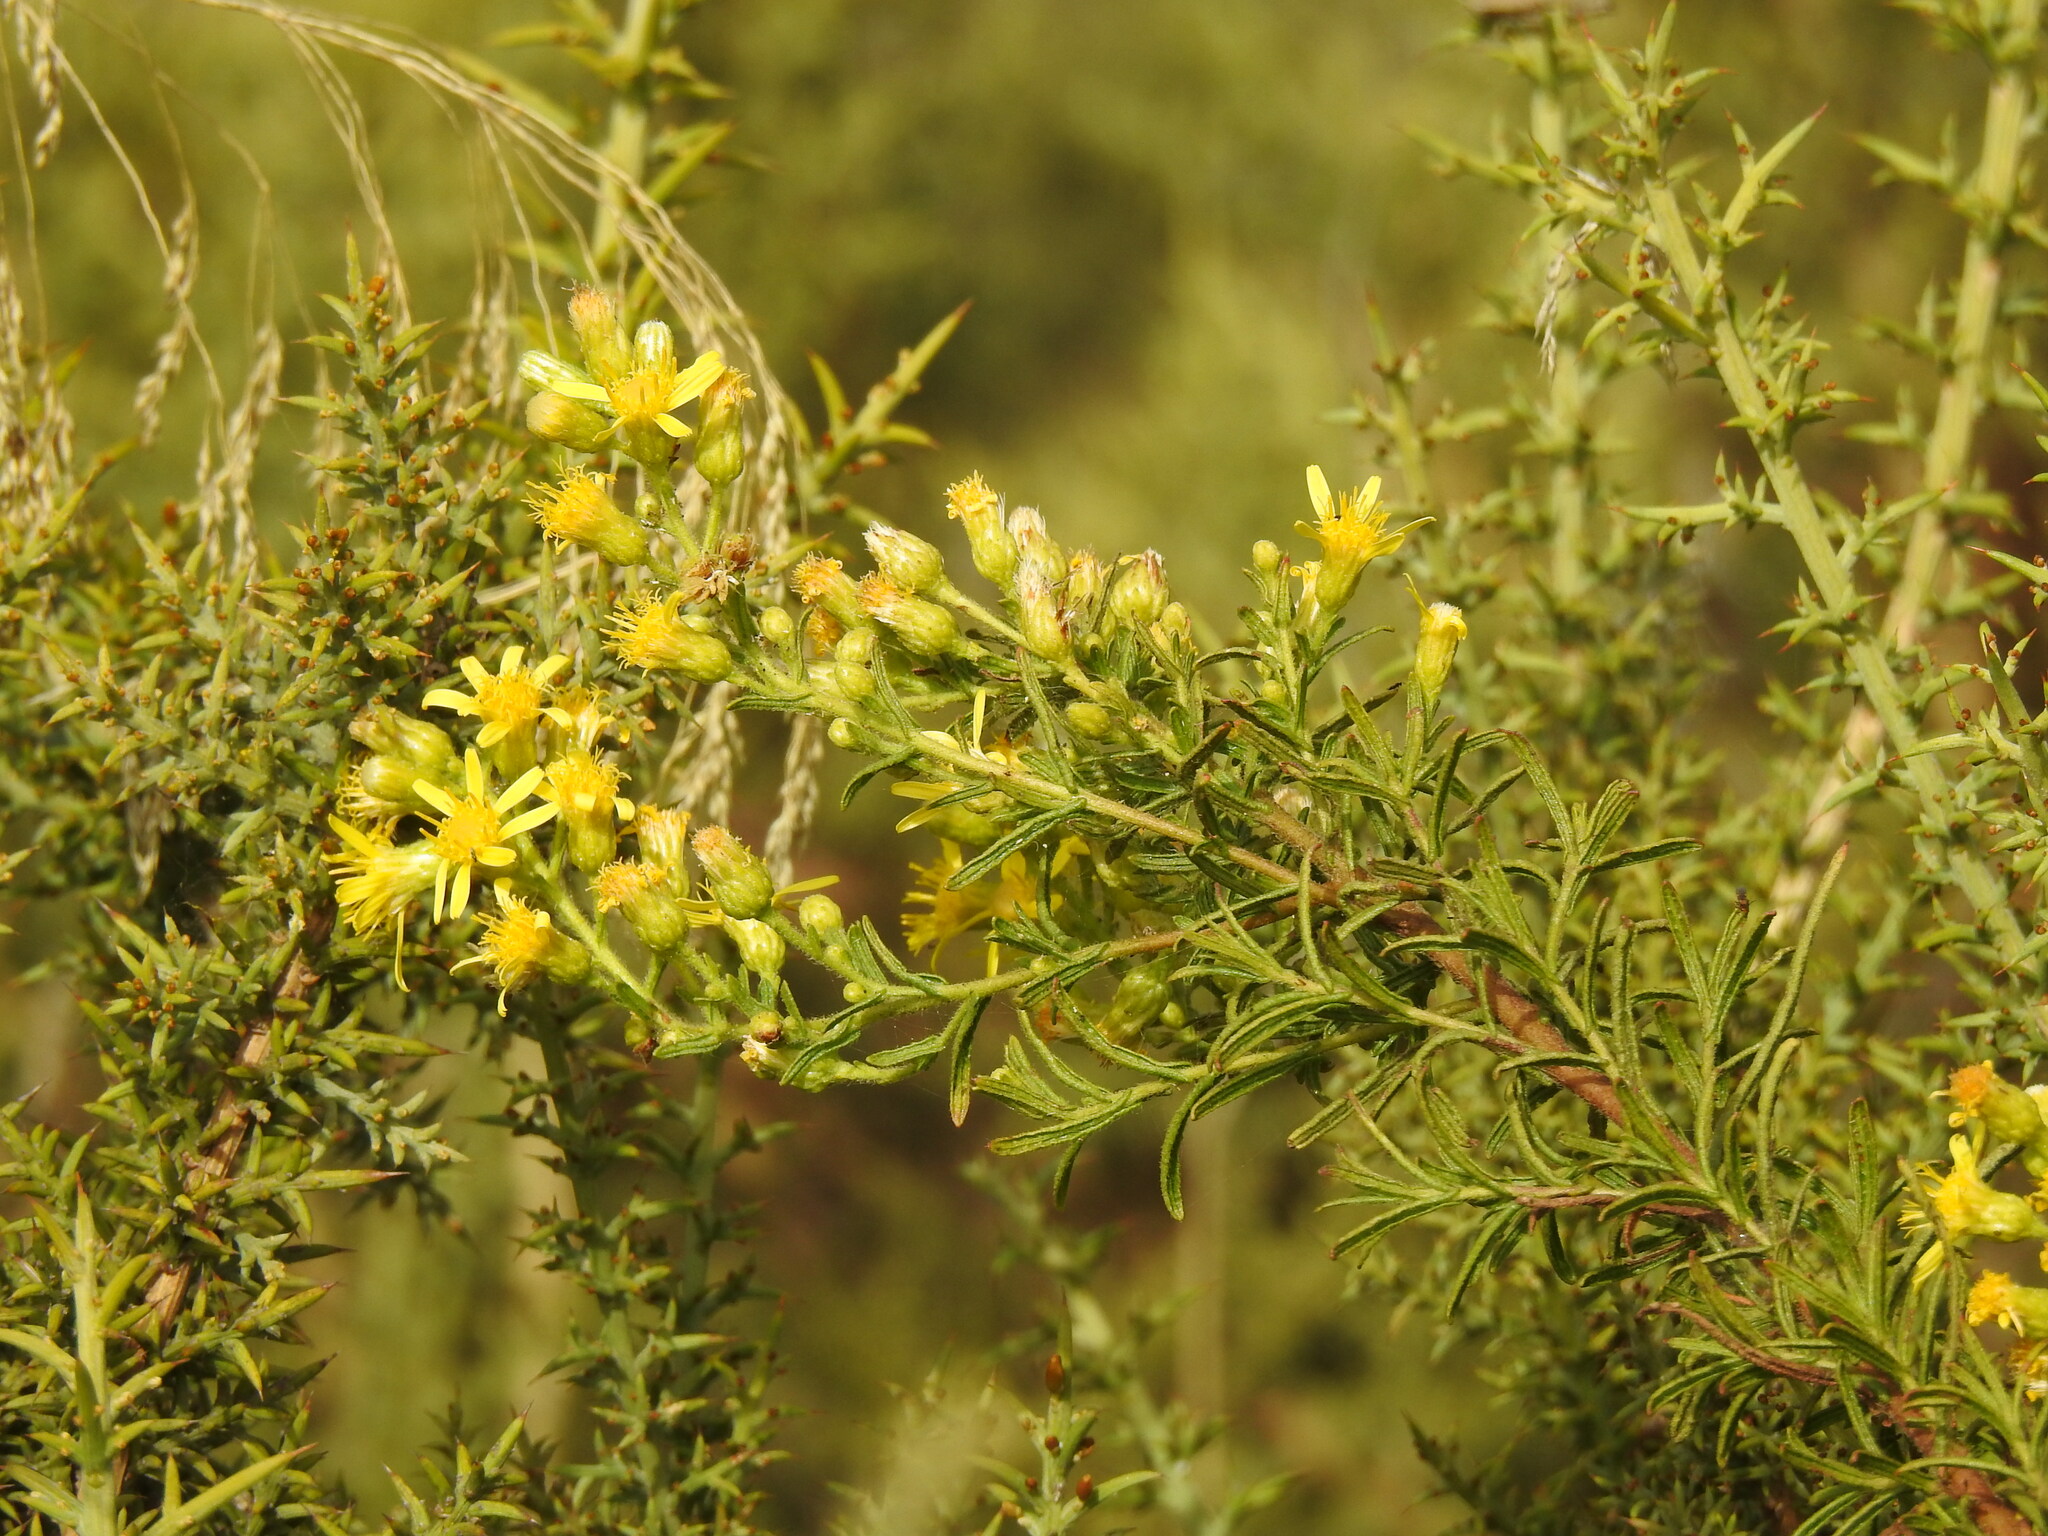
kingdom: Plantae
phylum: Tracheophyta
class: Magnoliopsida
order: Asterales
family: Asteraceae
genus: Dittrichia
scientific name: Dittrichia viscosa
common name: Woody fleabane
